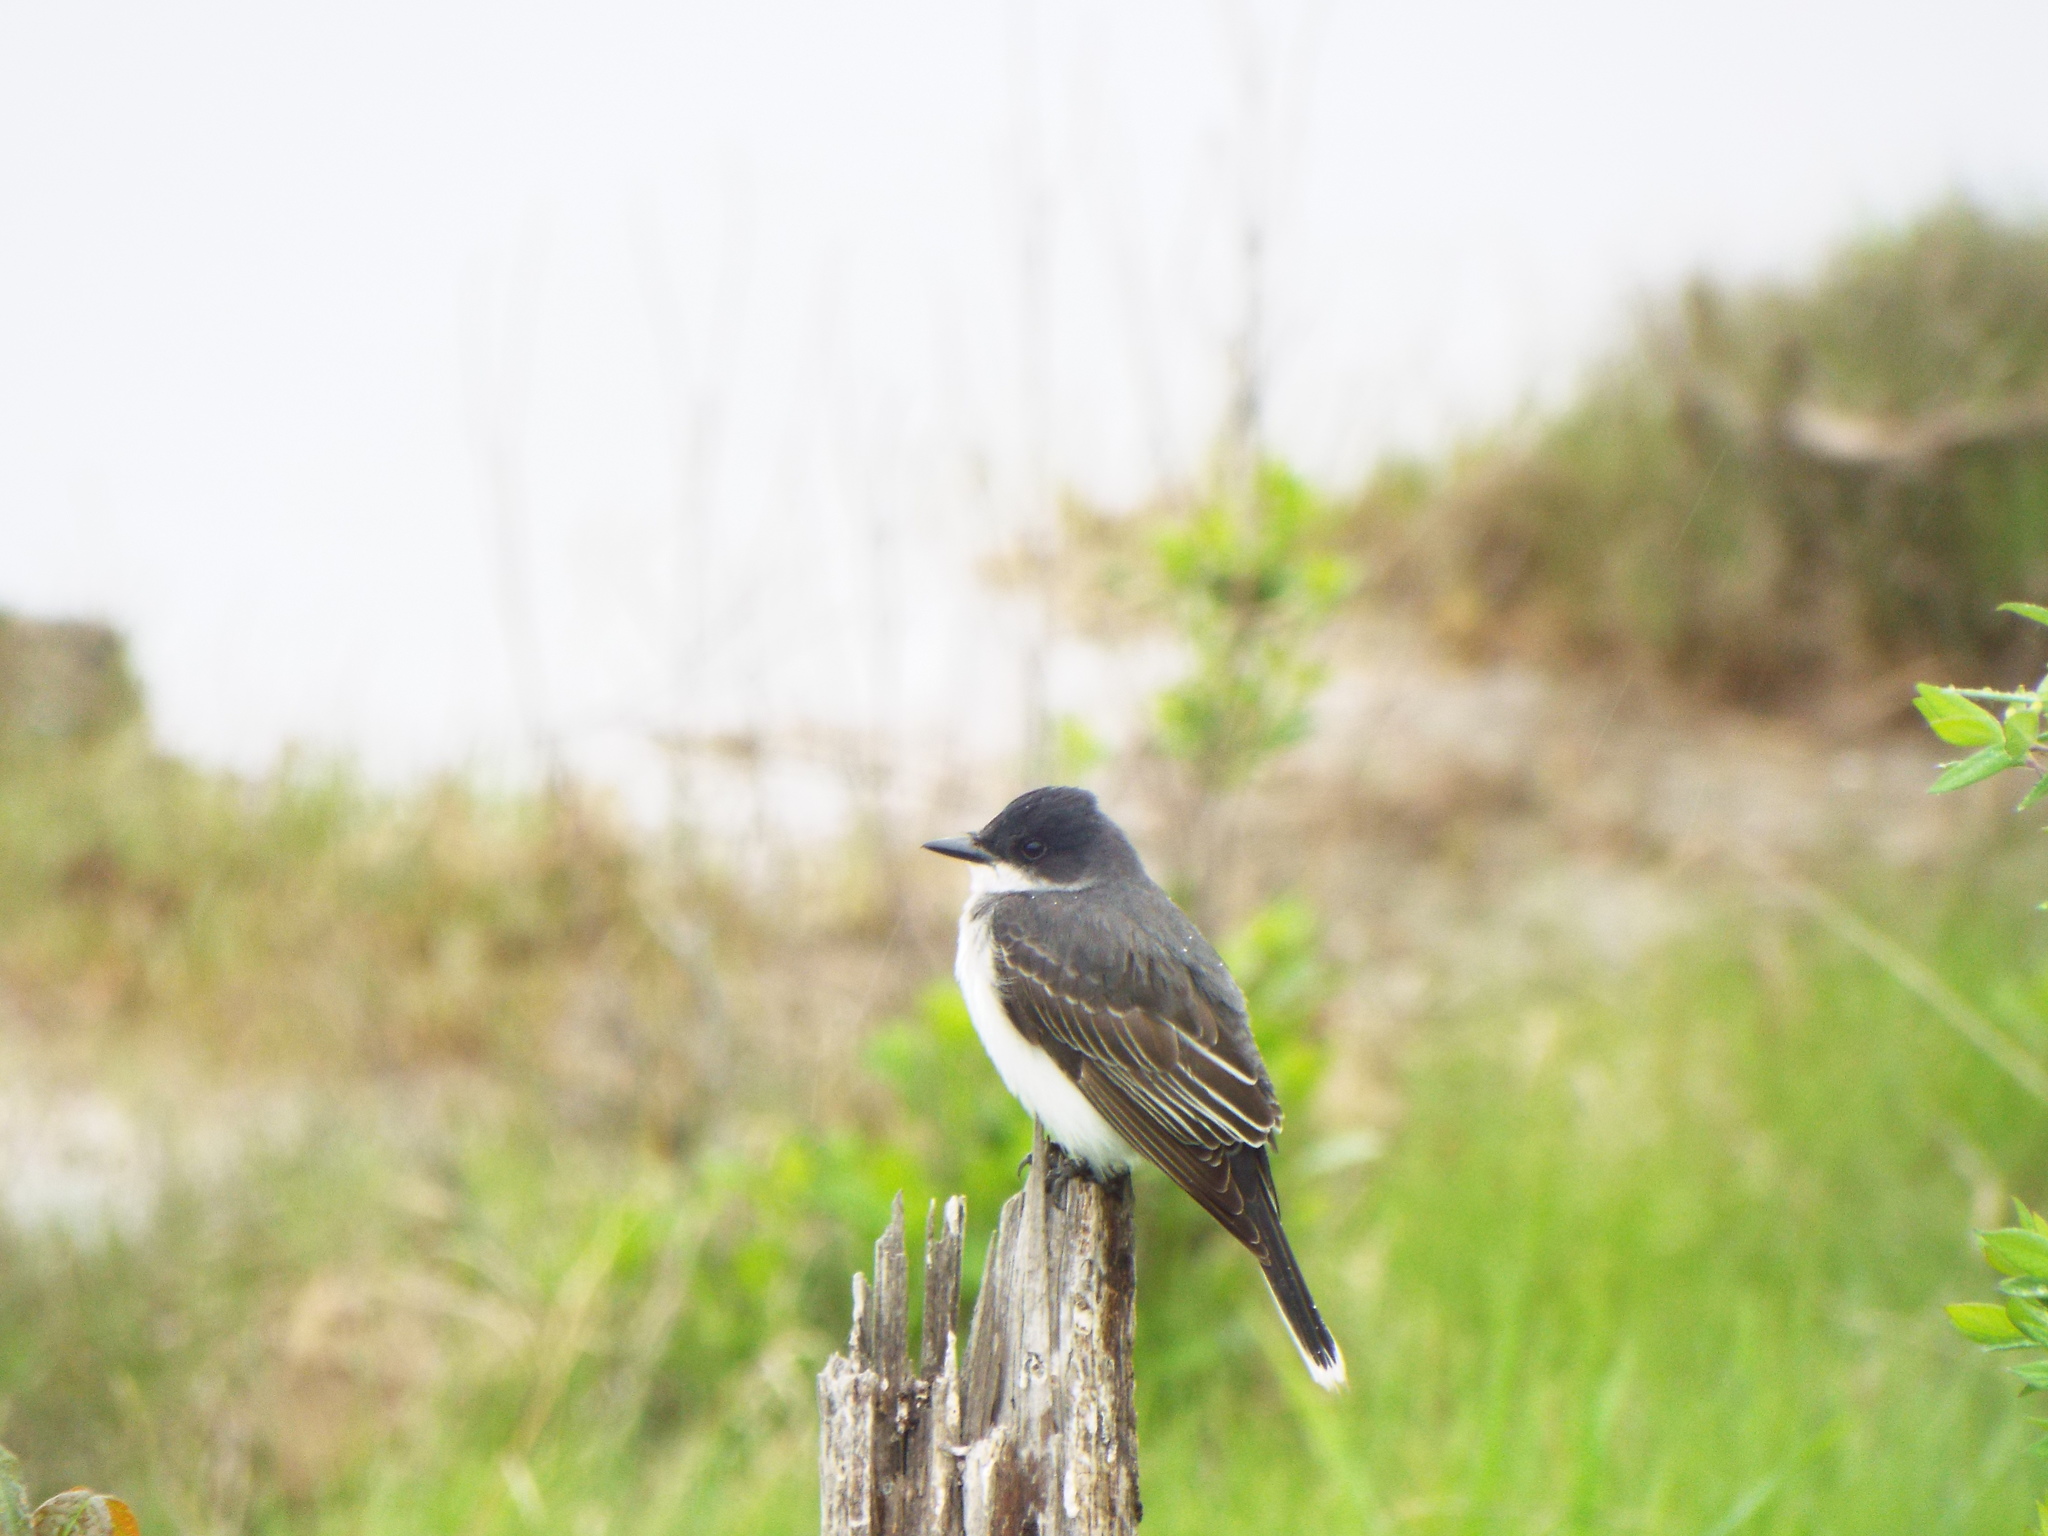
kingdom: Animalia
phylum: Chordata
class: Aves
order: Passeriformes
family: Tyrannidae
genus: Tyrannus
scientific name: Tyrannus tyrannus
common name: Eastern kingbird
